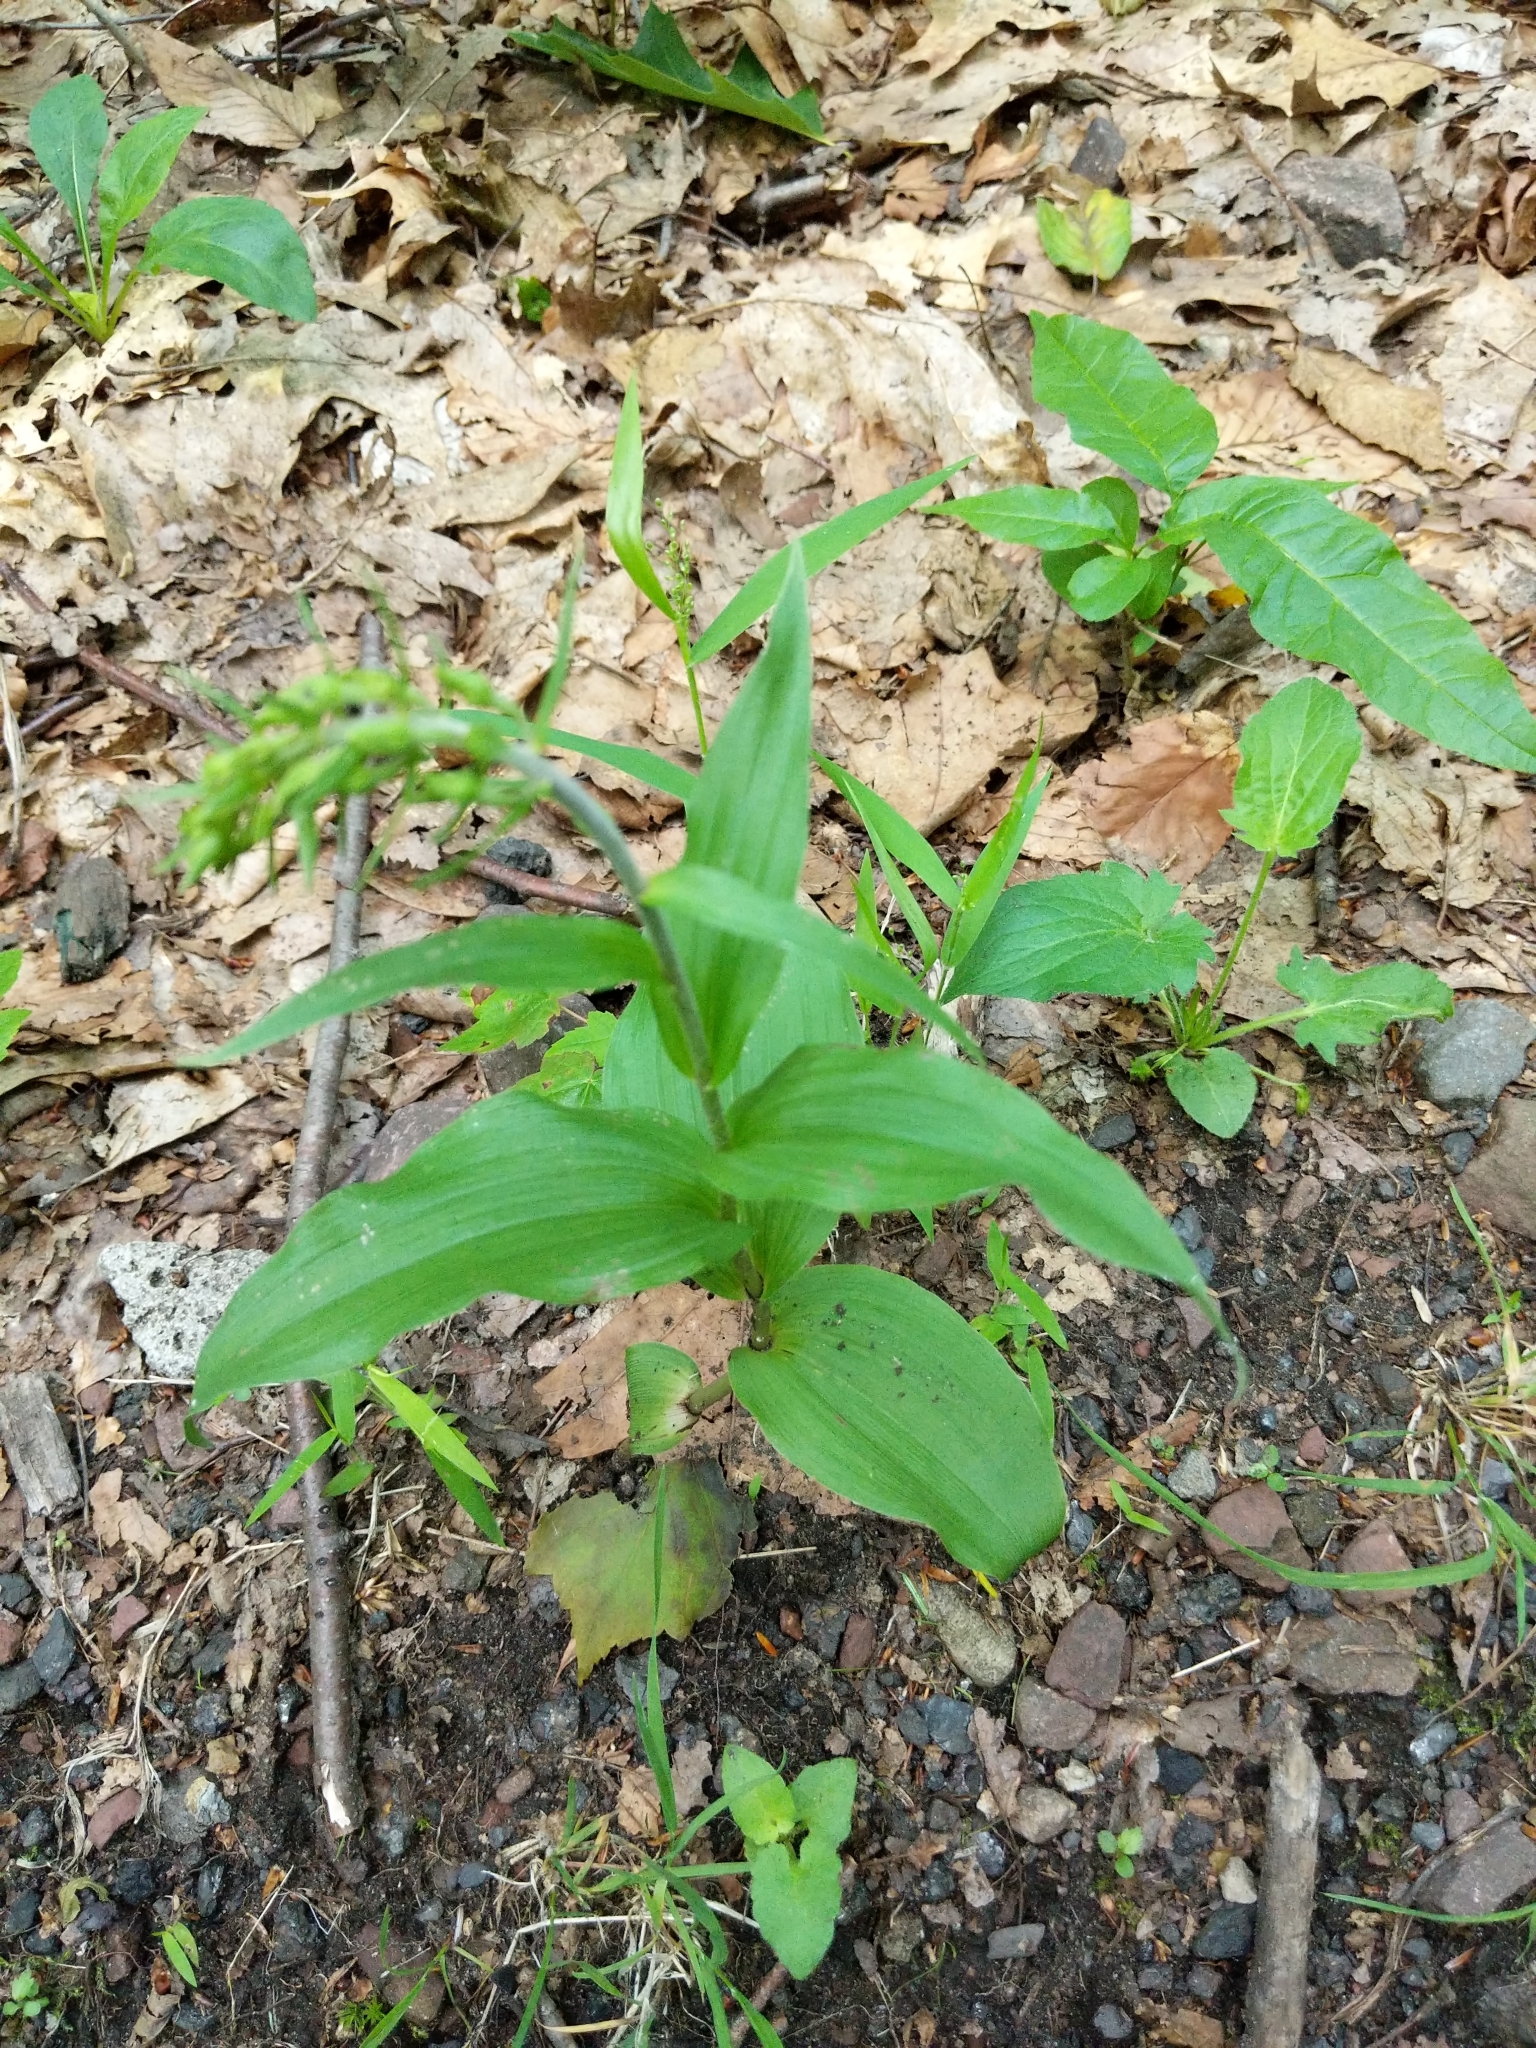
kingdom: Plantae
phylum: Tracheophyta
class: Liliopsida
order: Asparagales
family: Orchidaceae
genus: Epipactis
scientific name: Epipactis helleborine
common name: Broad-leaved helleborine
